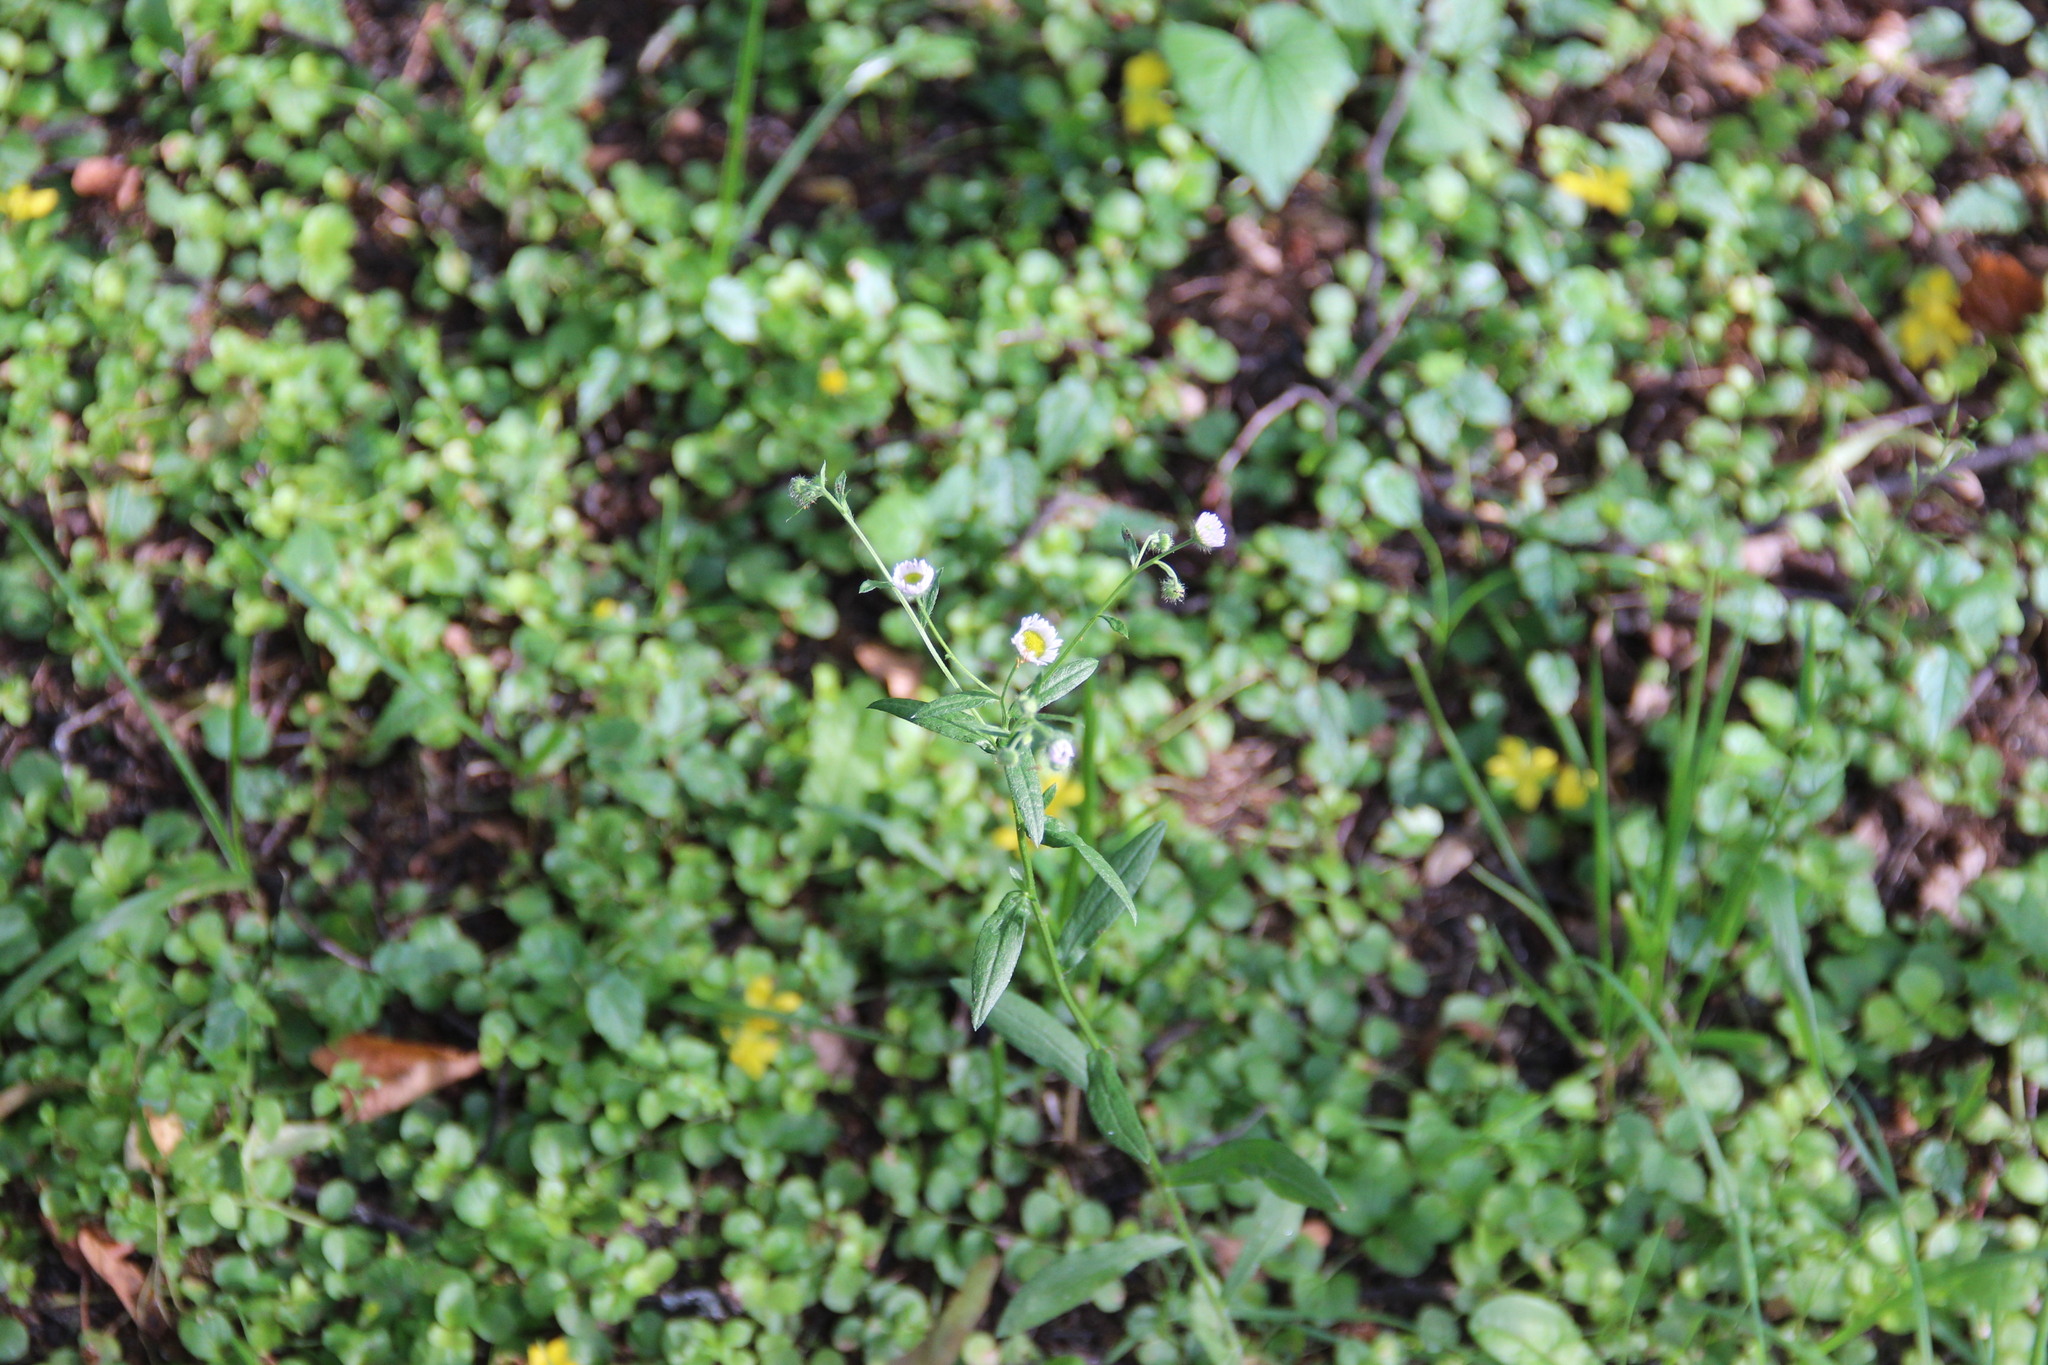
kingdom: Plantae
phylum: Tracheophyta
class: Magnoliopsida
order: Asterales
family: Asteraceae
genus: Erigeron
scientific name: Erigeron annuus
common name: Tall fleabane
